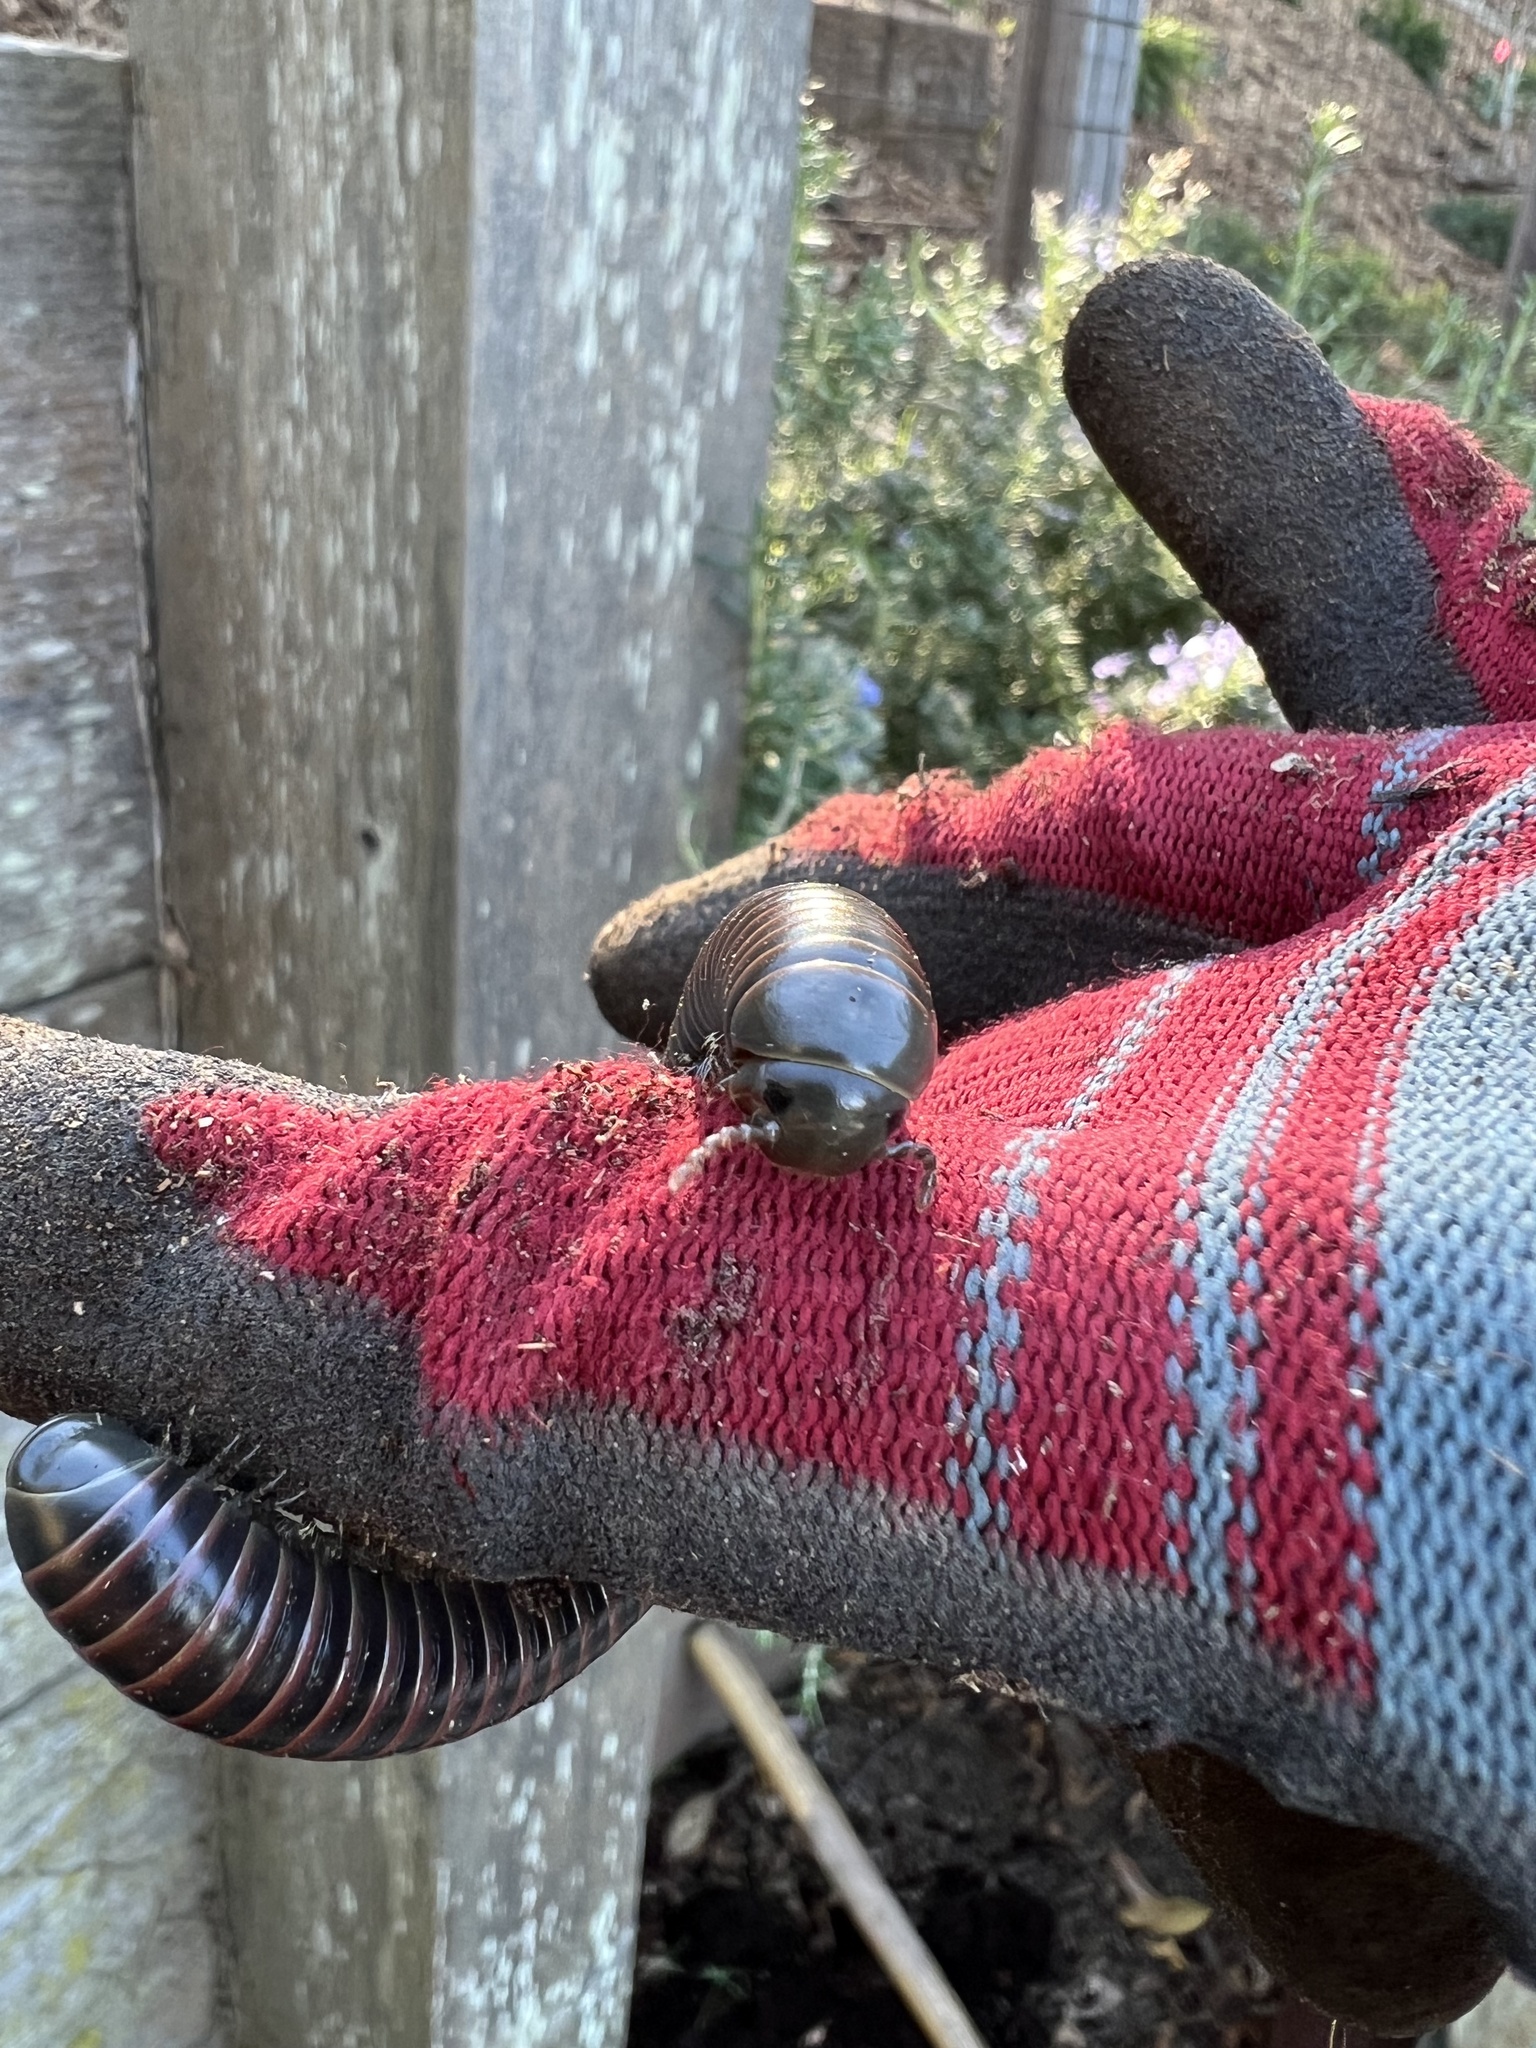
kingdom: Animalia
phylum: Arthropoda
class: Diplopoda
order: Spirobolida
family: Spirobolidae
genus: Tylobolus
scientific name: Tylobolus uncigerus
